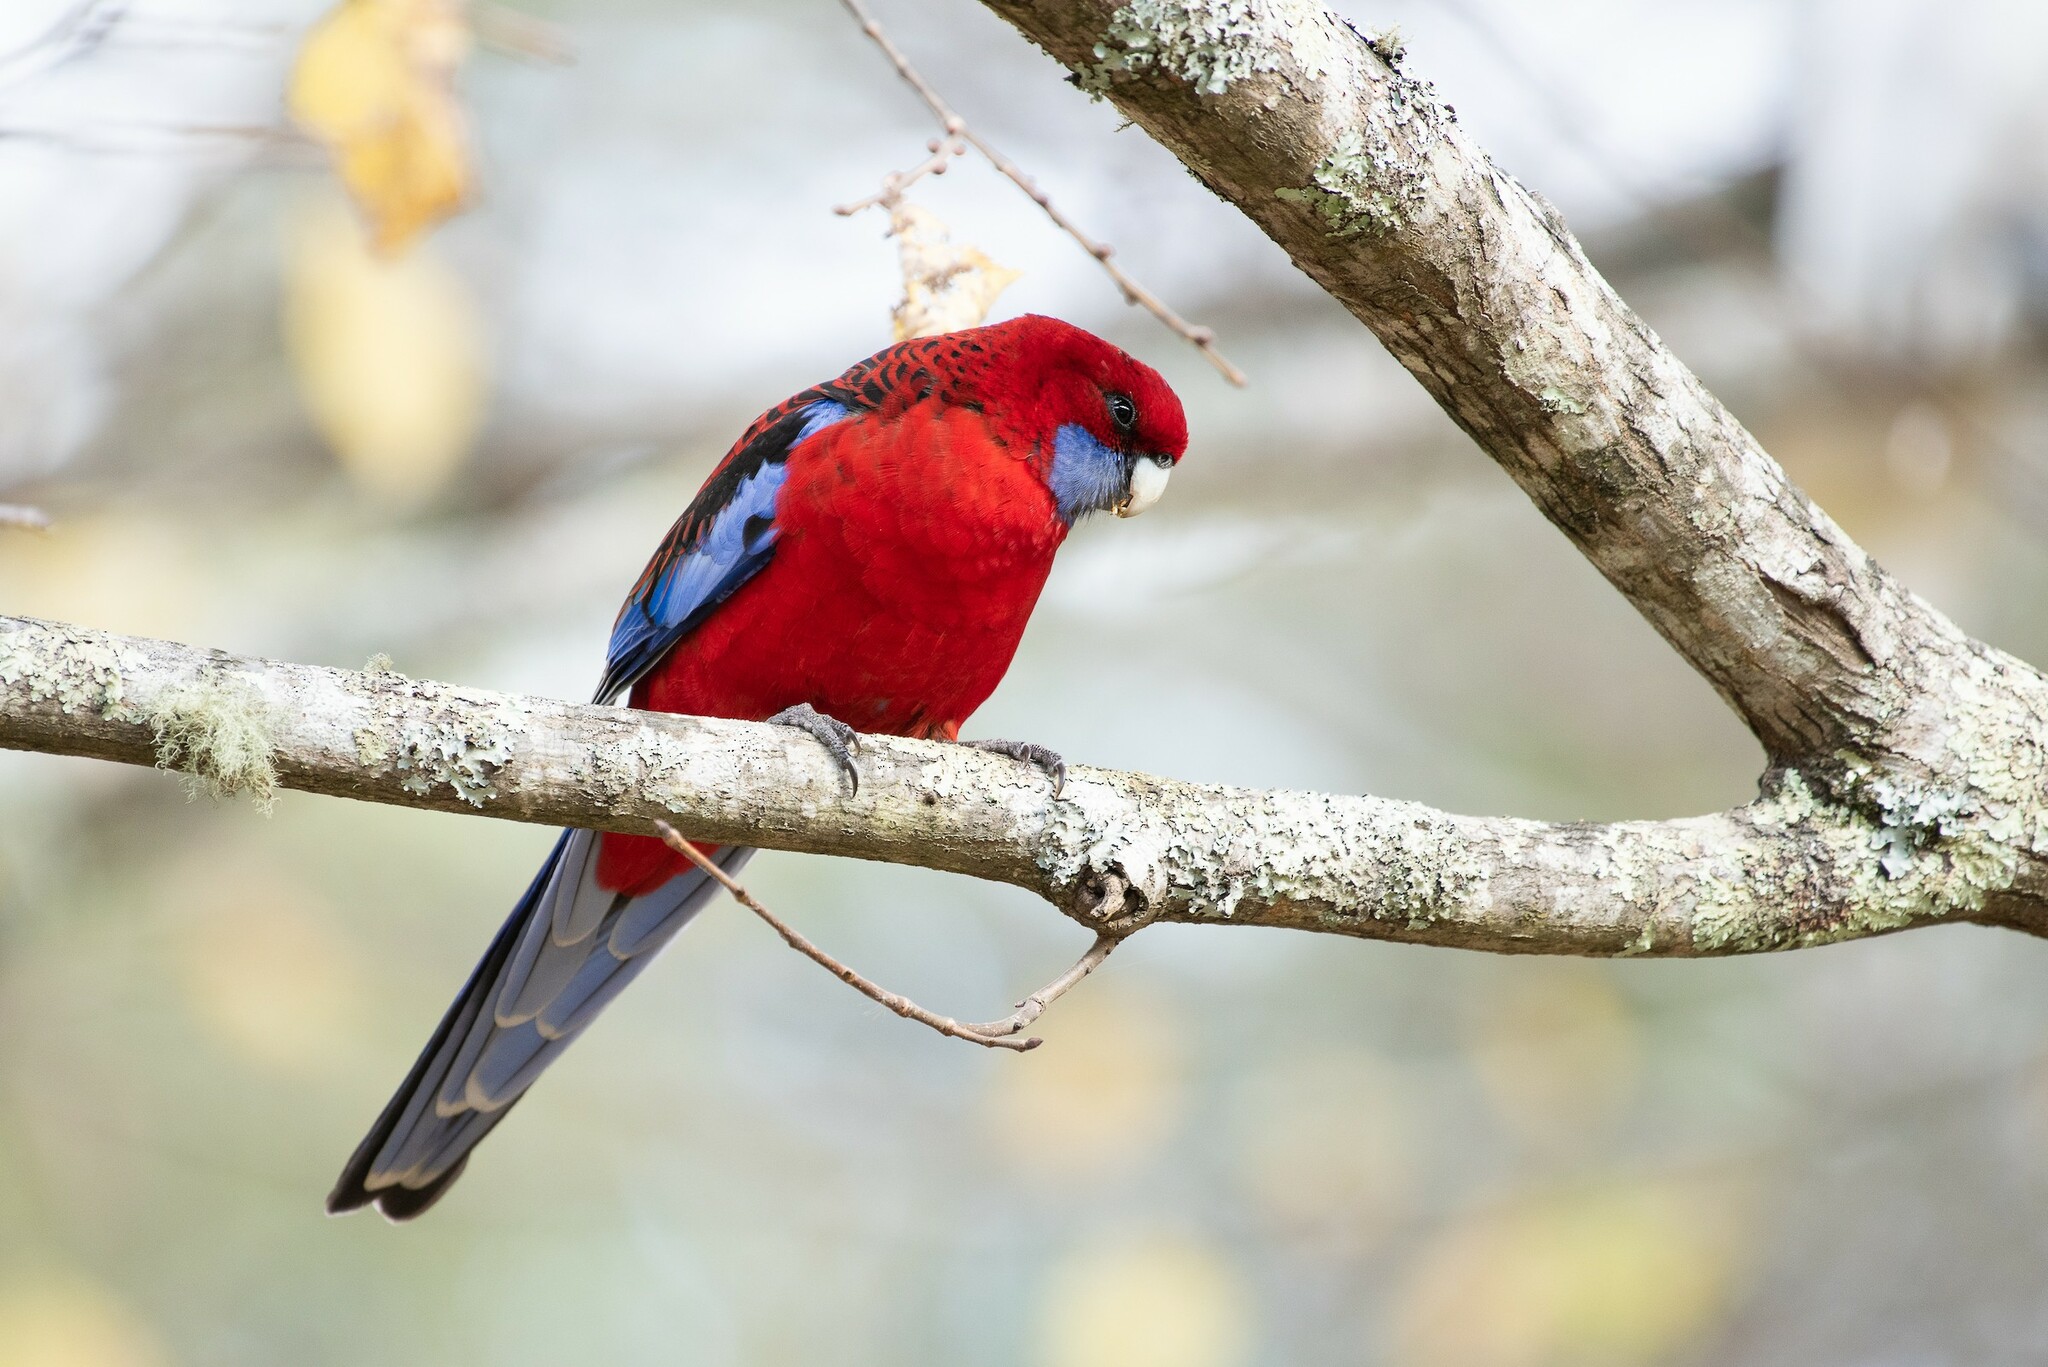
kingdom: Animalia
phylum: Chordata
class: Aves
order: Psittaciformes
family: Psittacidae
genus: Platycercus
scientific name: Platycercus elegans
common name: Crimson rosella
